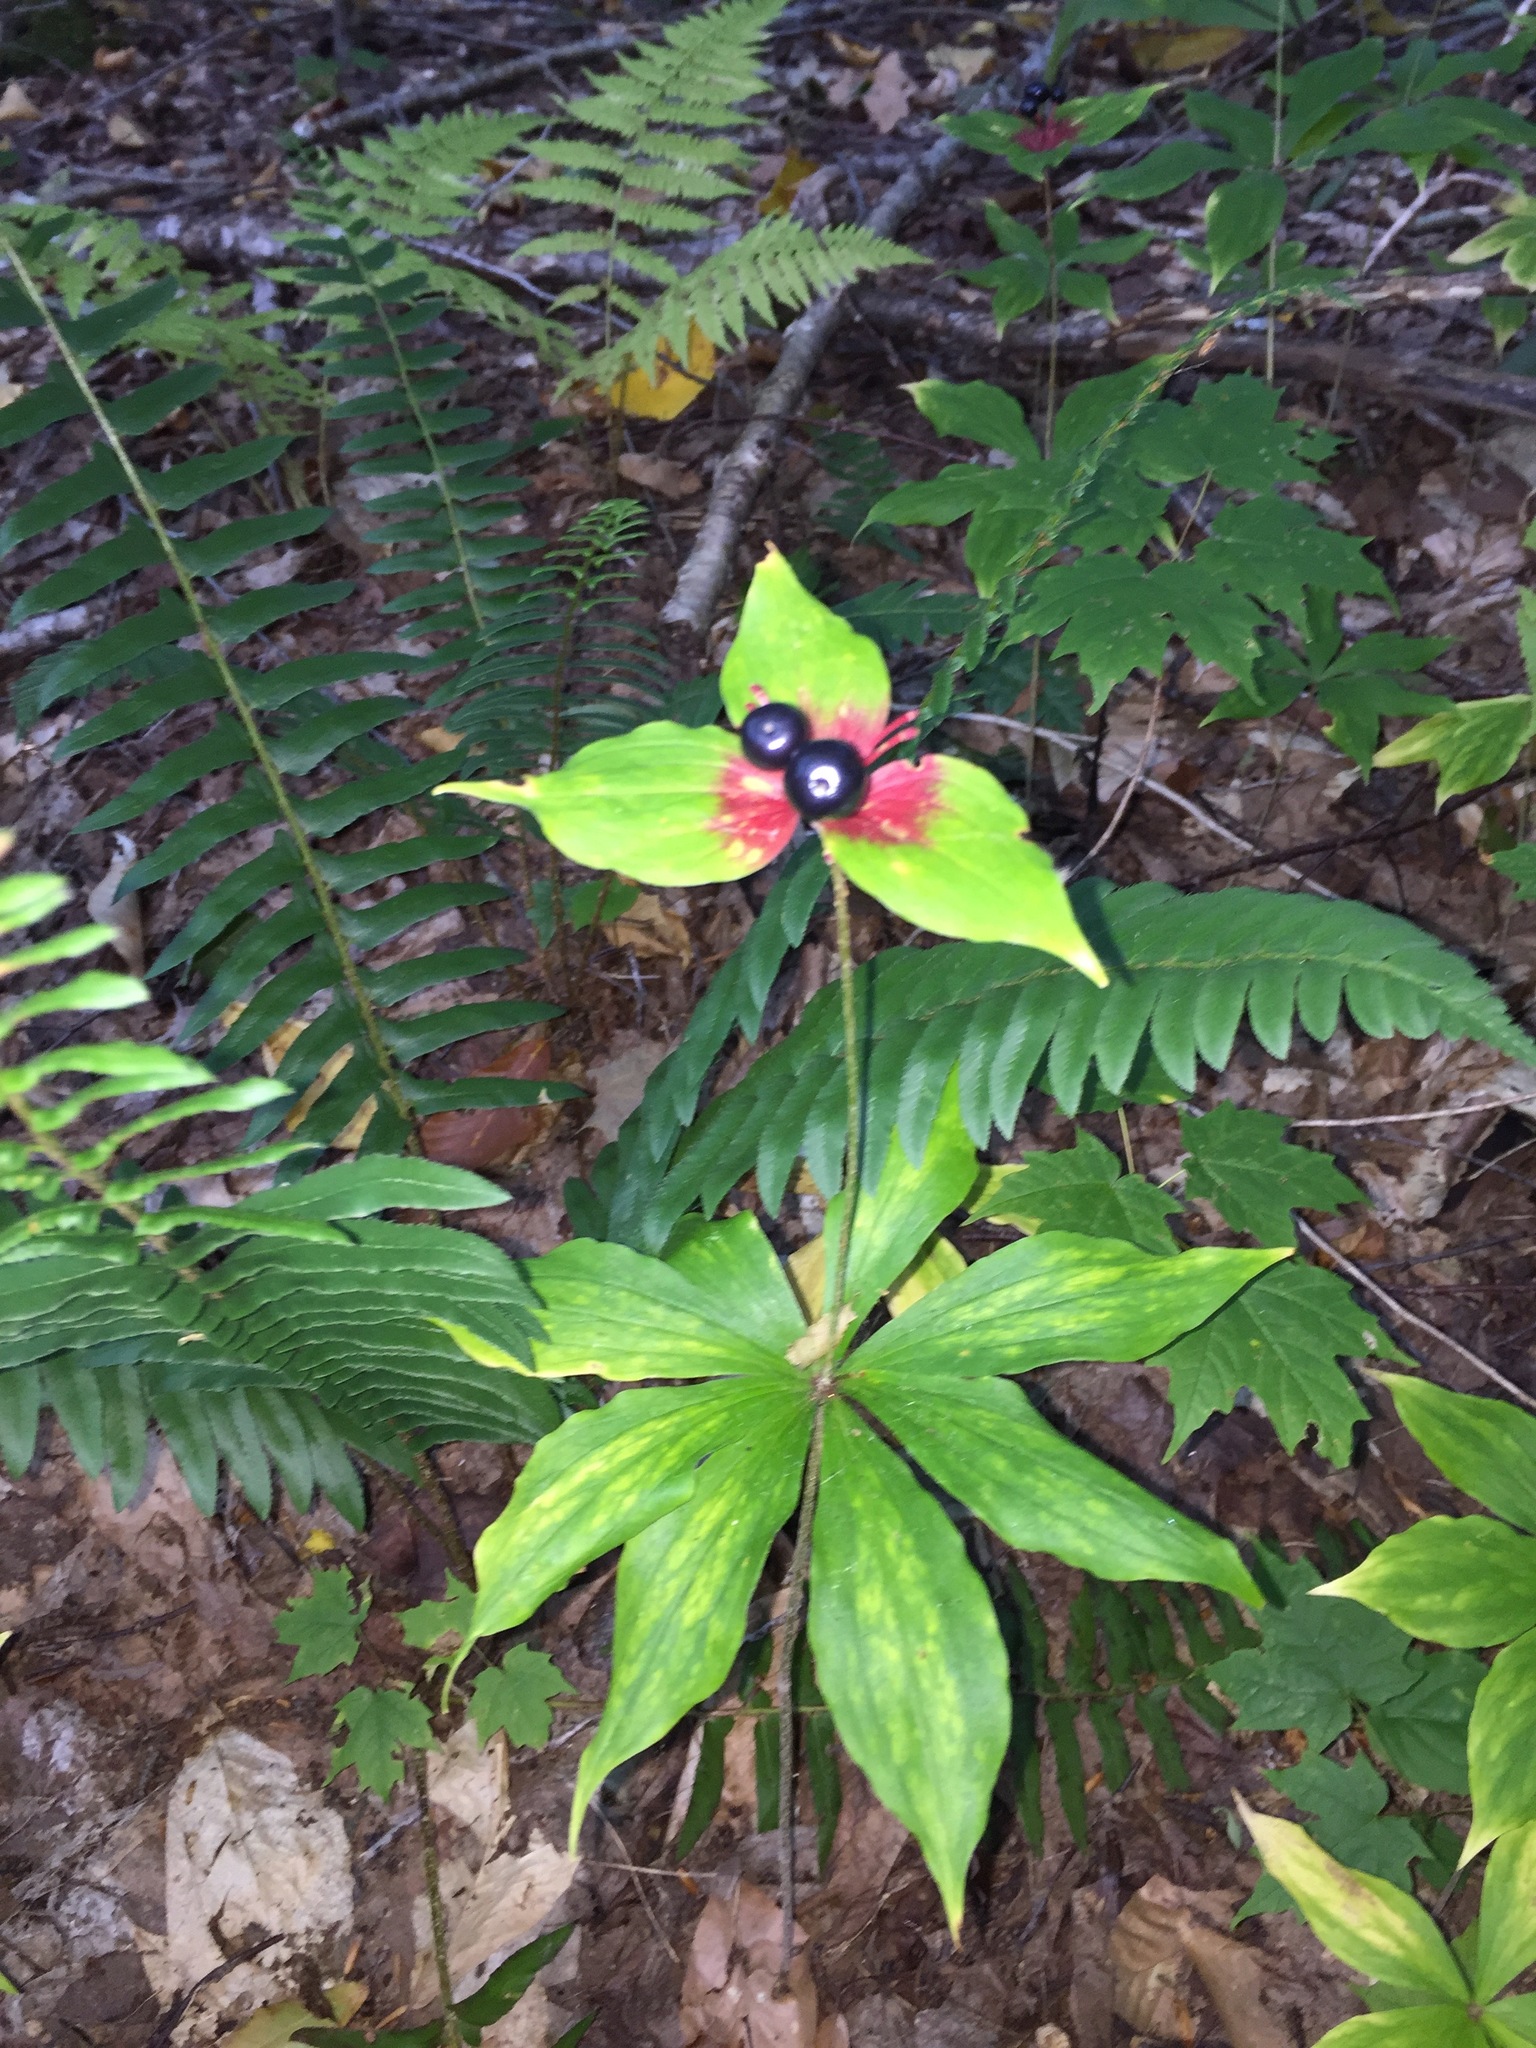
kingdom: Plantae
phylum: Tracheophyta
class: Liliopsida
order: Liliales
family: Liliaceae
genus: Medeola
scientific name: Medeola virginiana
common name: Indian cucumber-root
